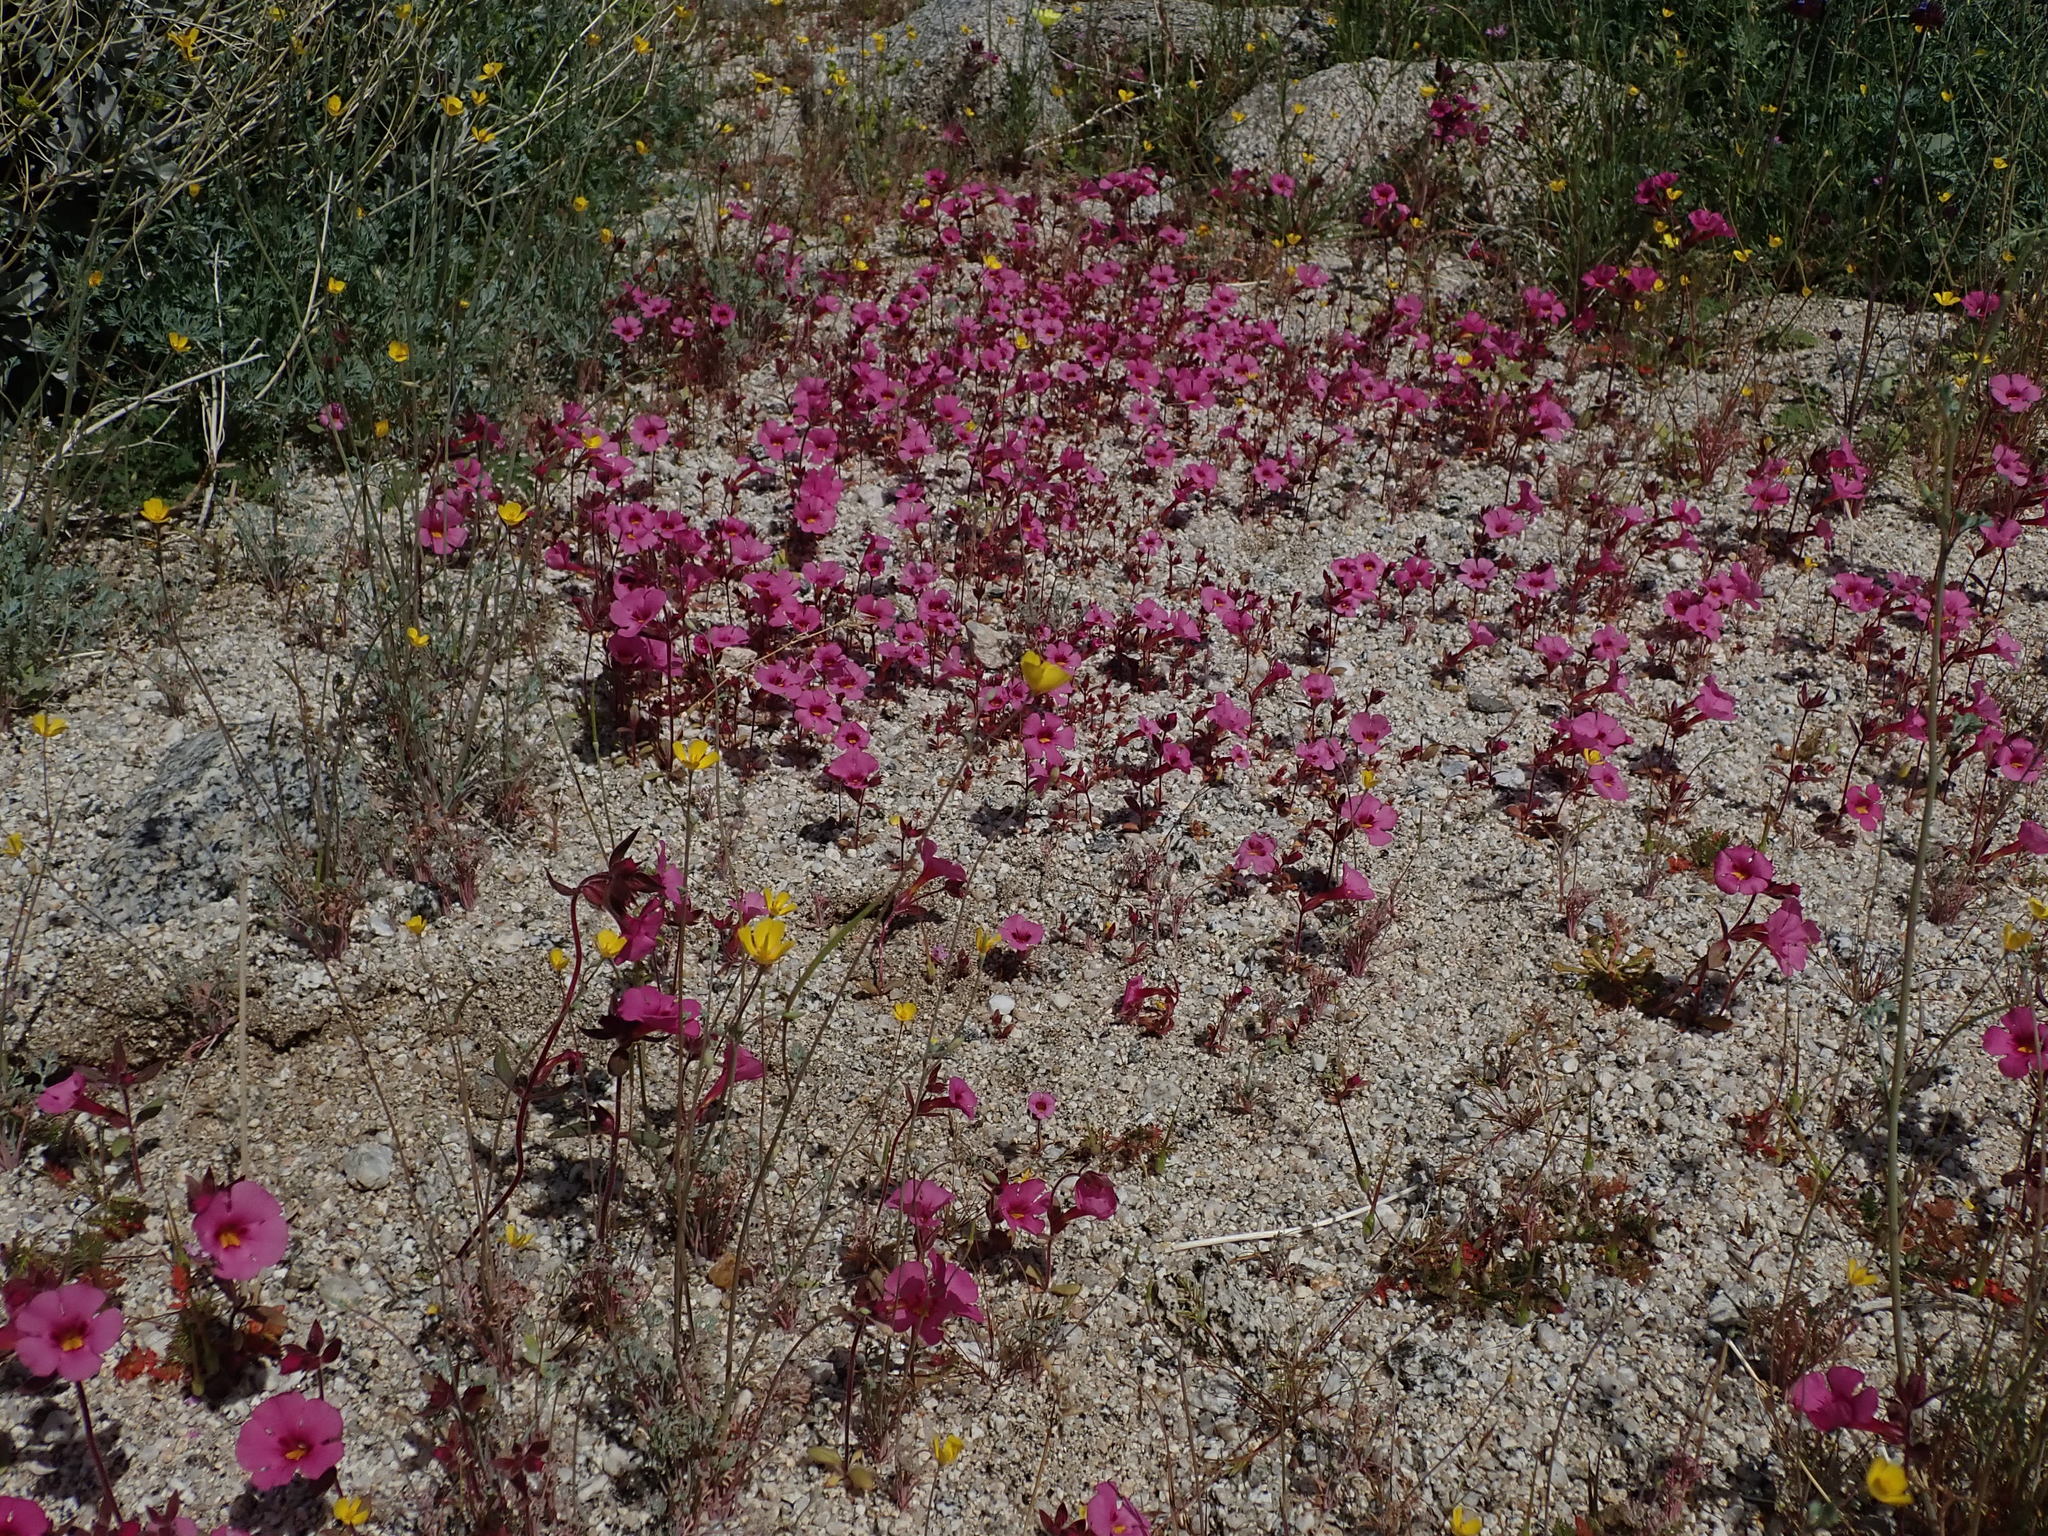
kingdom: Plantae
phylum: Tracheophyta
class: Magnoliopsida
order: Lamiales
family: Phrymaceae
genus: Diplacus
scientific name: Diplacus bigelovii
